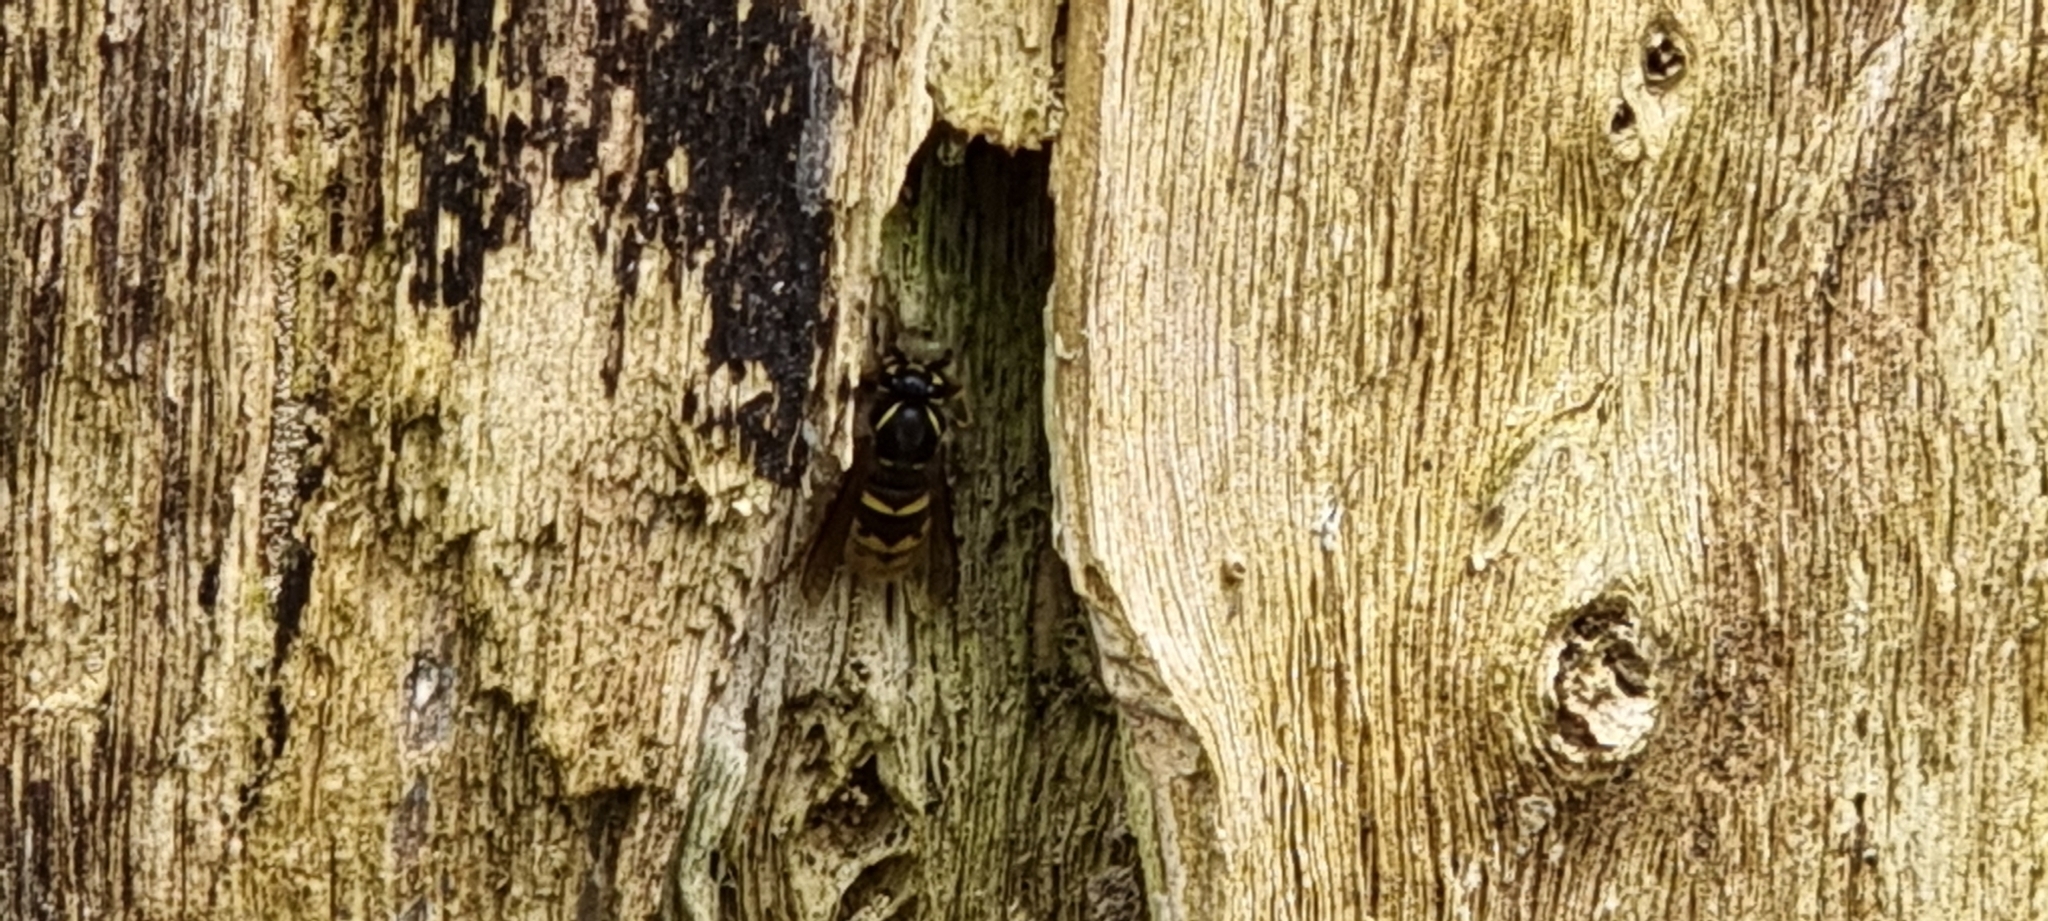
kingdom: Animalia
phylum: Arthropoda
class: Insecta
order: Hymenoptera
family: Vespidae
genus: Vespula
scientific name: Vespula vulgaris
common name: Common wasp
